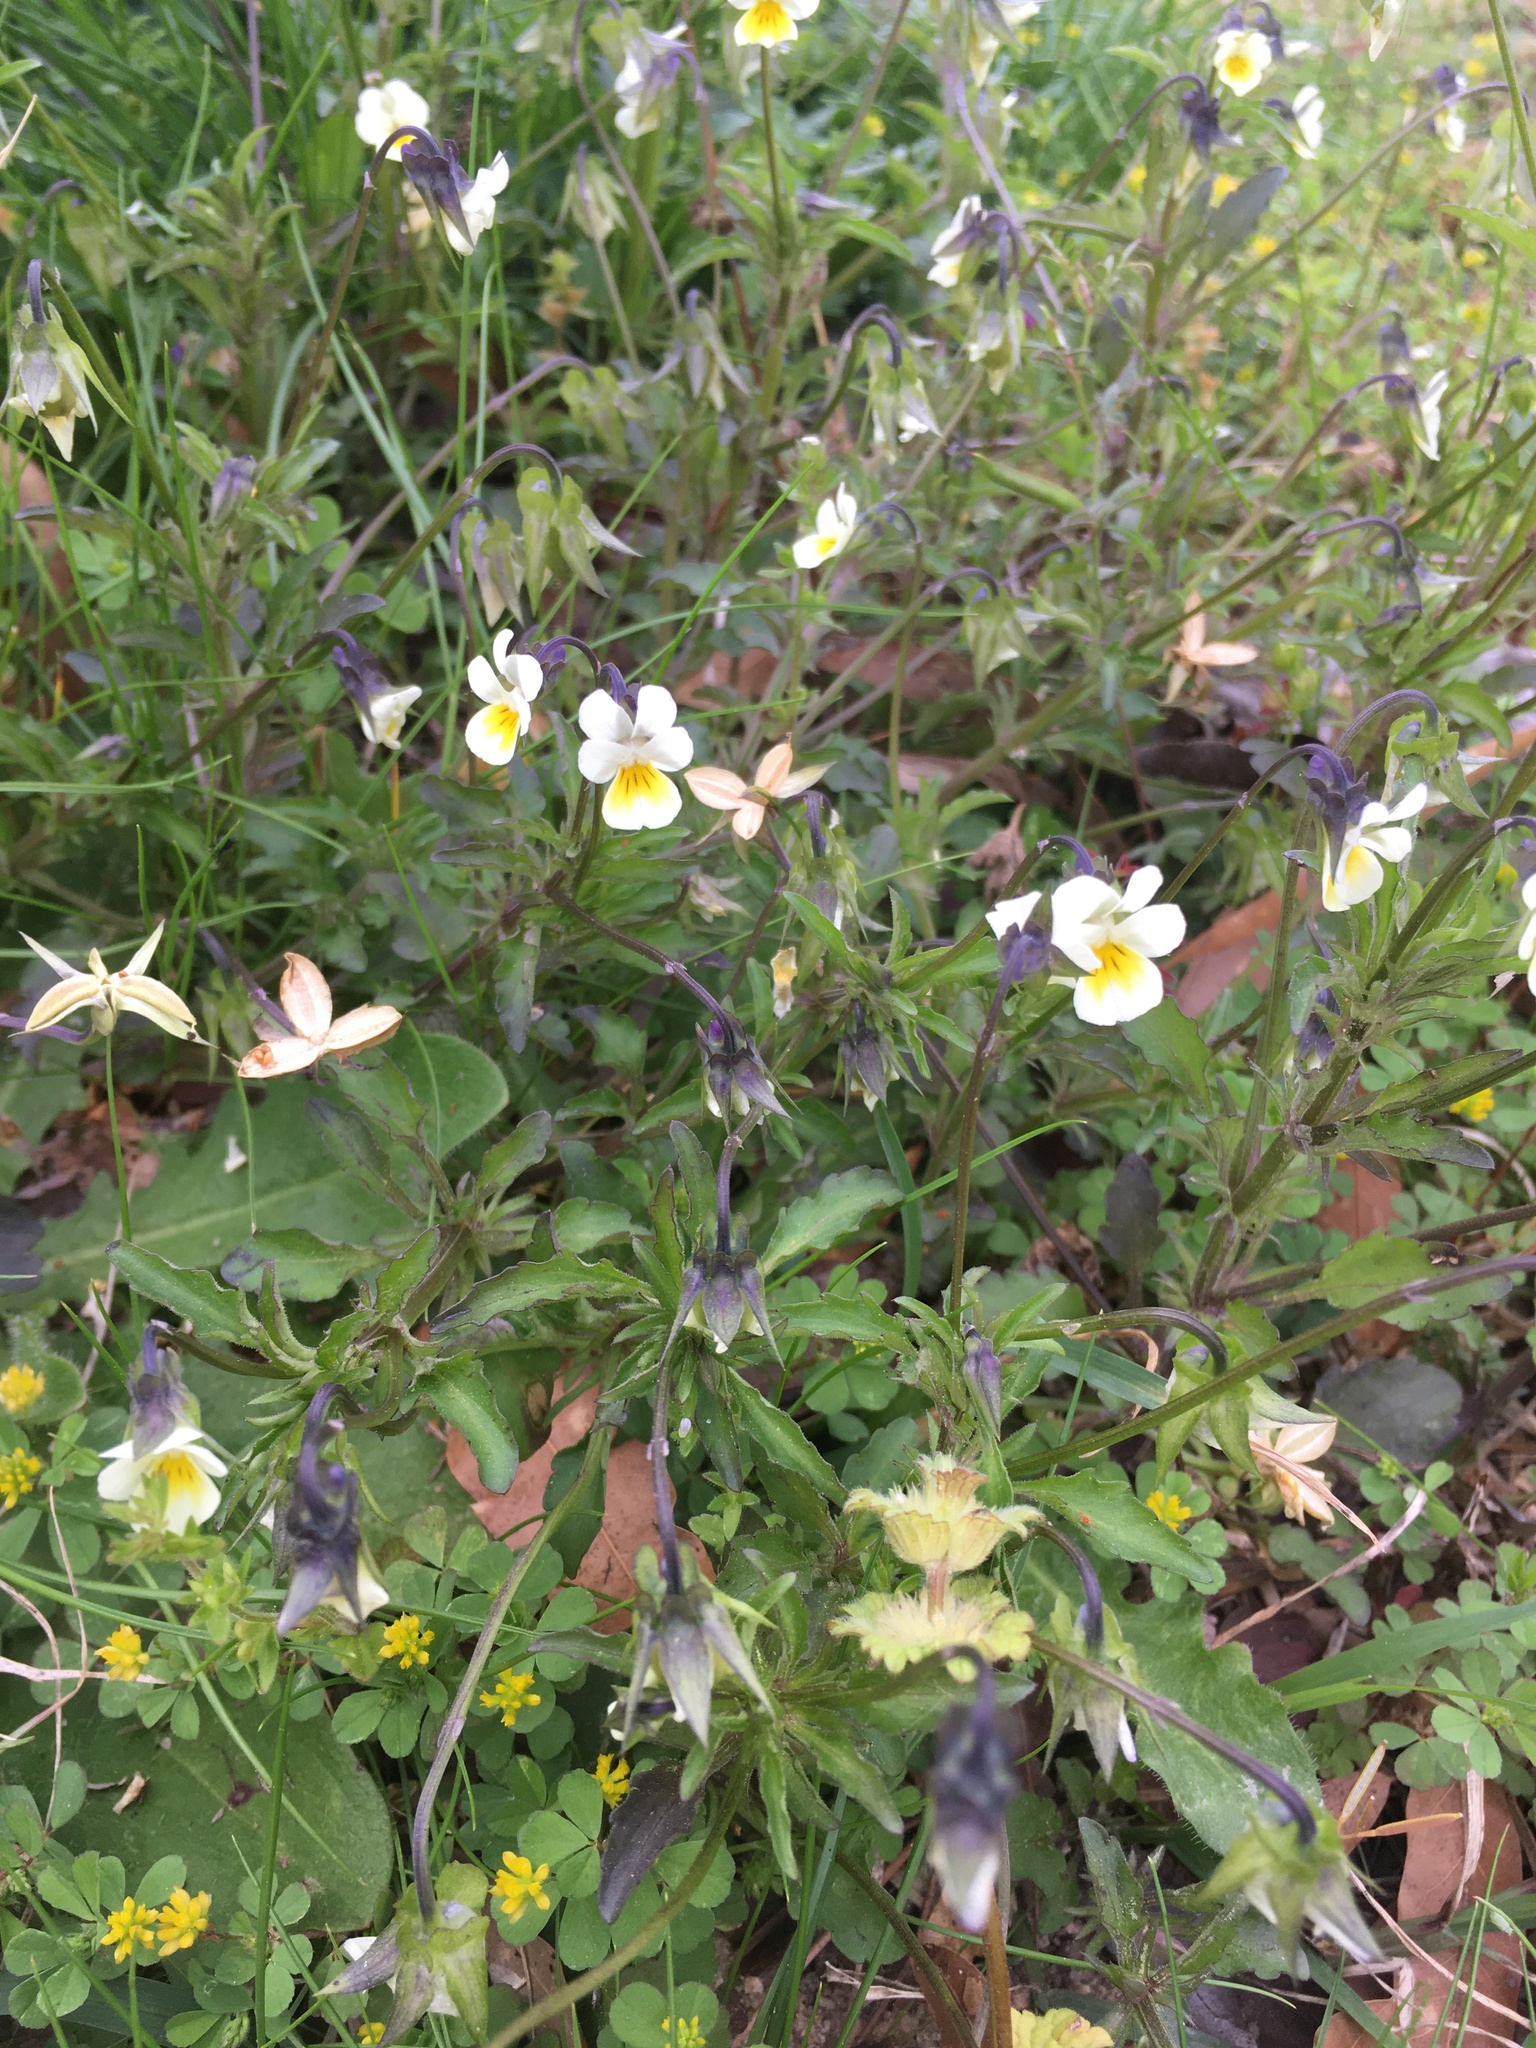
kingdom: Plantae
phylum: Tracheophyta
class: Magnoliopsida
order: Malpighiales
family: Violaceae
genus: Viola
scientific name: Viola arvensis
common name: Field pansy
